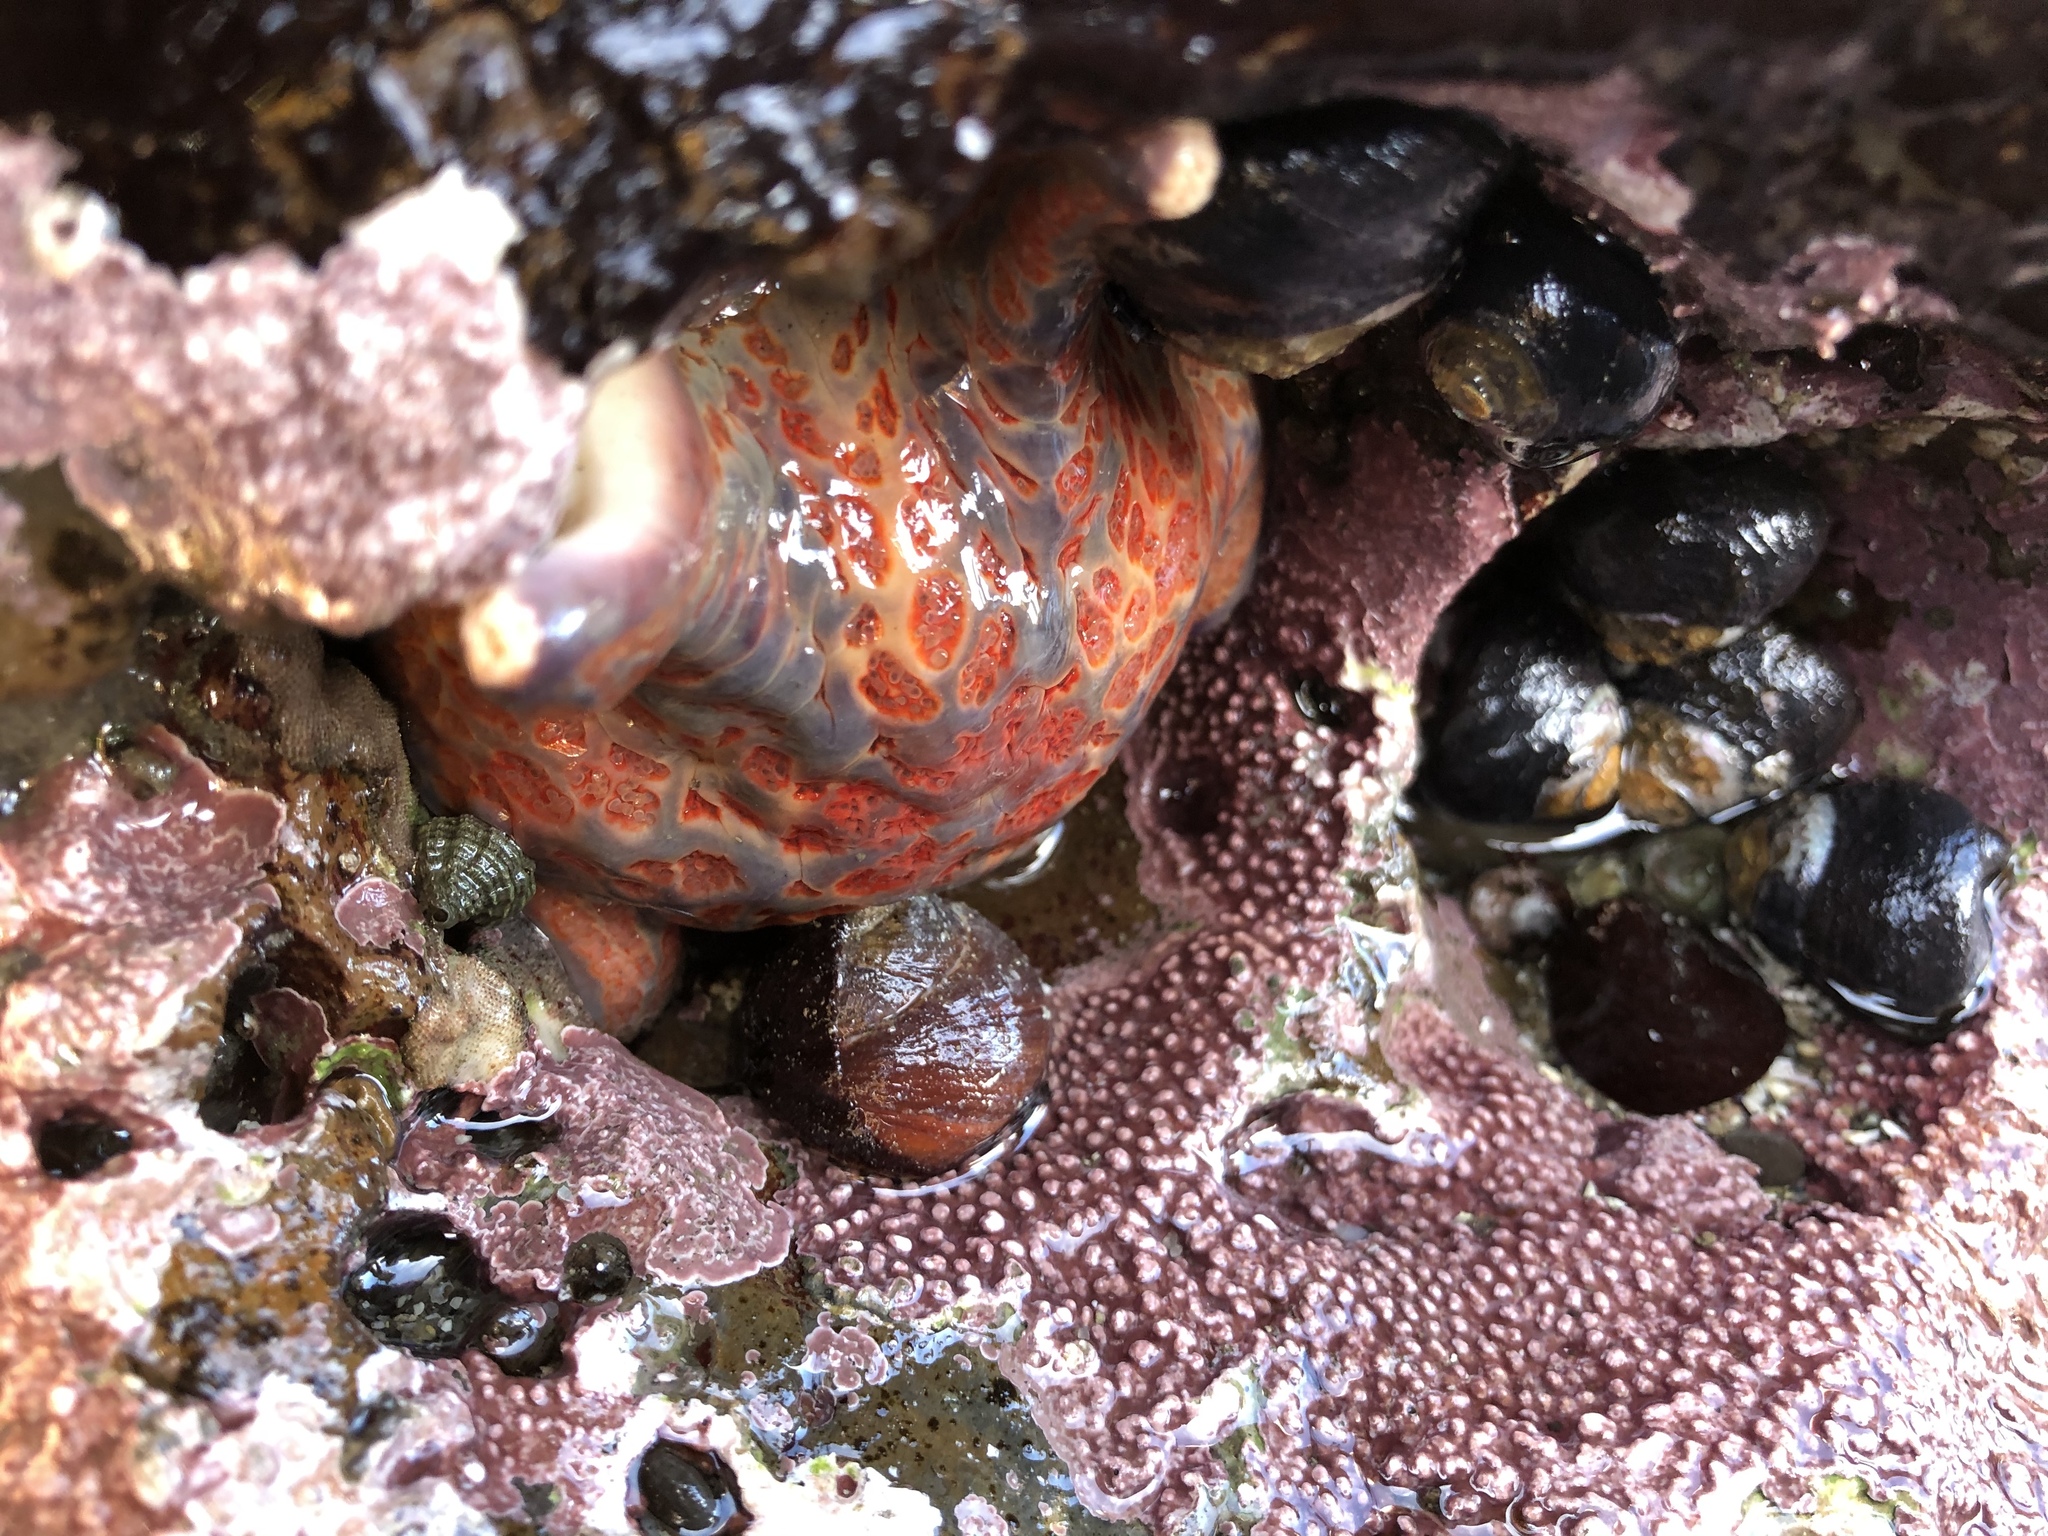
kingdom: Animalia
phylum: Echinodermata
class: Asteroidea
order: Valvatida
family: Asteropseidae
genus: Dermasterias
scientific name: Dermasterias imbricata
